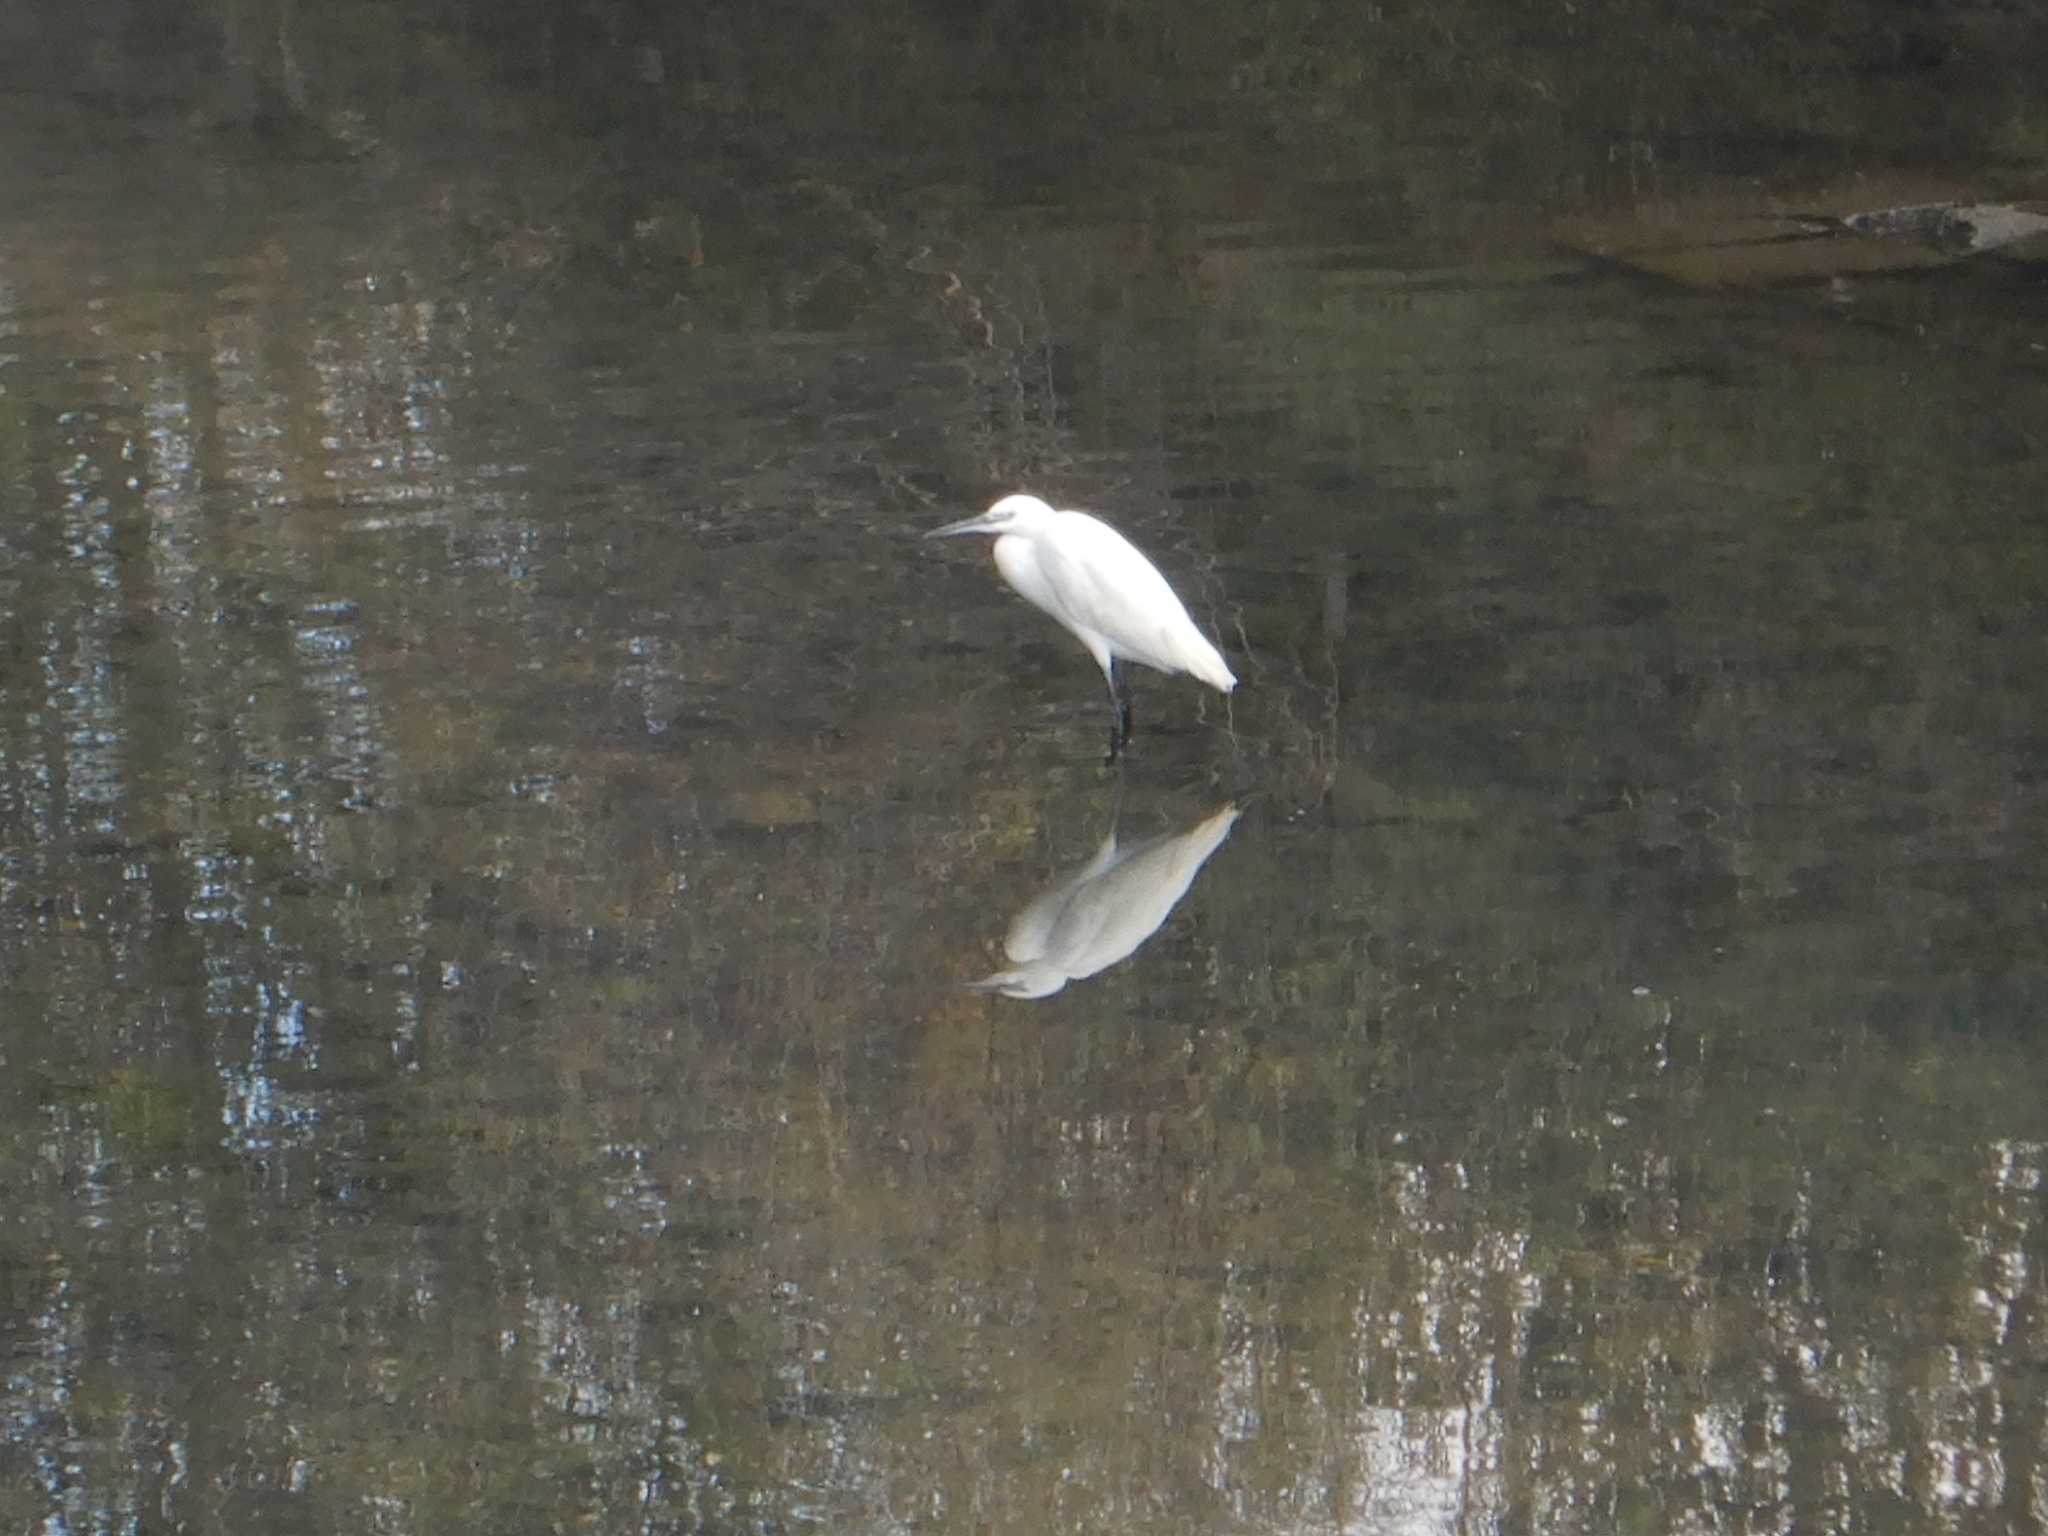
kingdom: Animalia
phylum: Chordata
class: Aves
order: Pelecaniformes
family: Ardeidae
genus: Egretta
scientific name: Egretta garzetta
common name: Little egret
